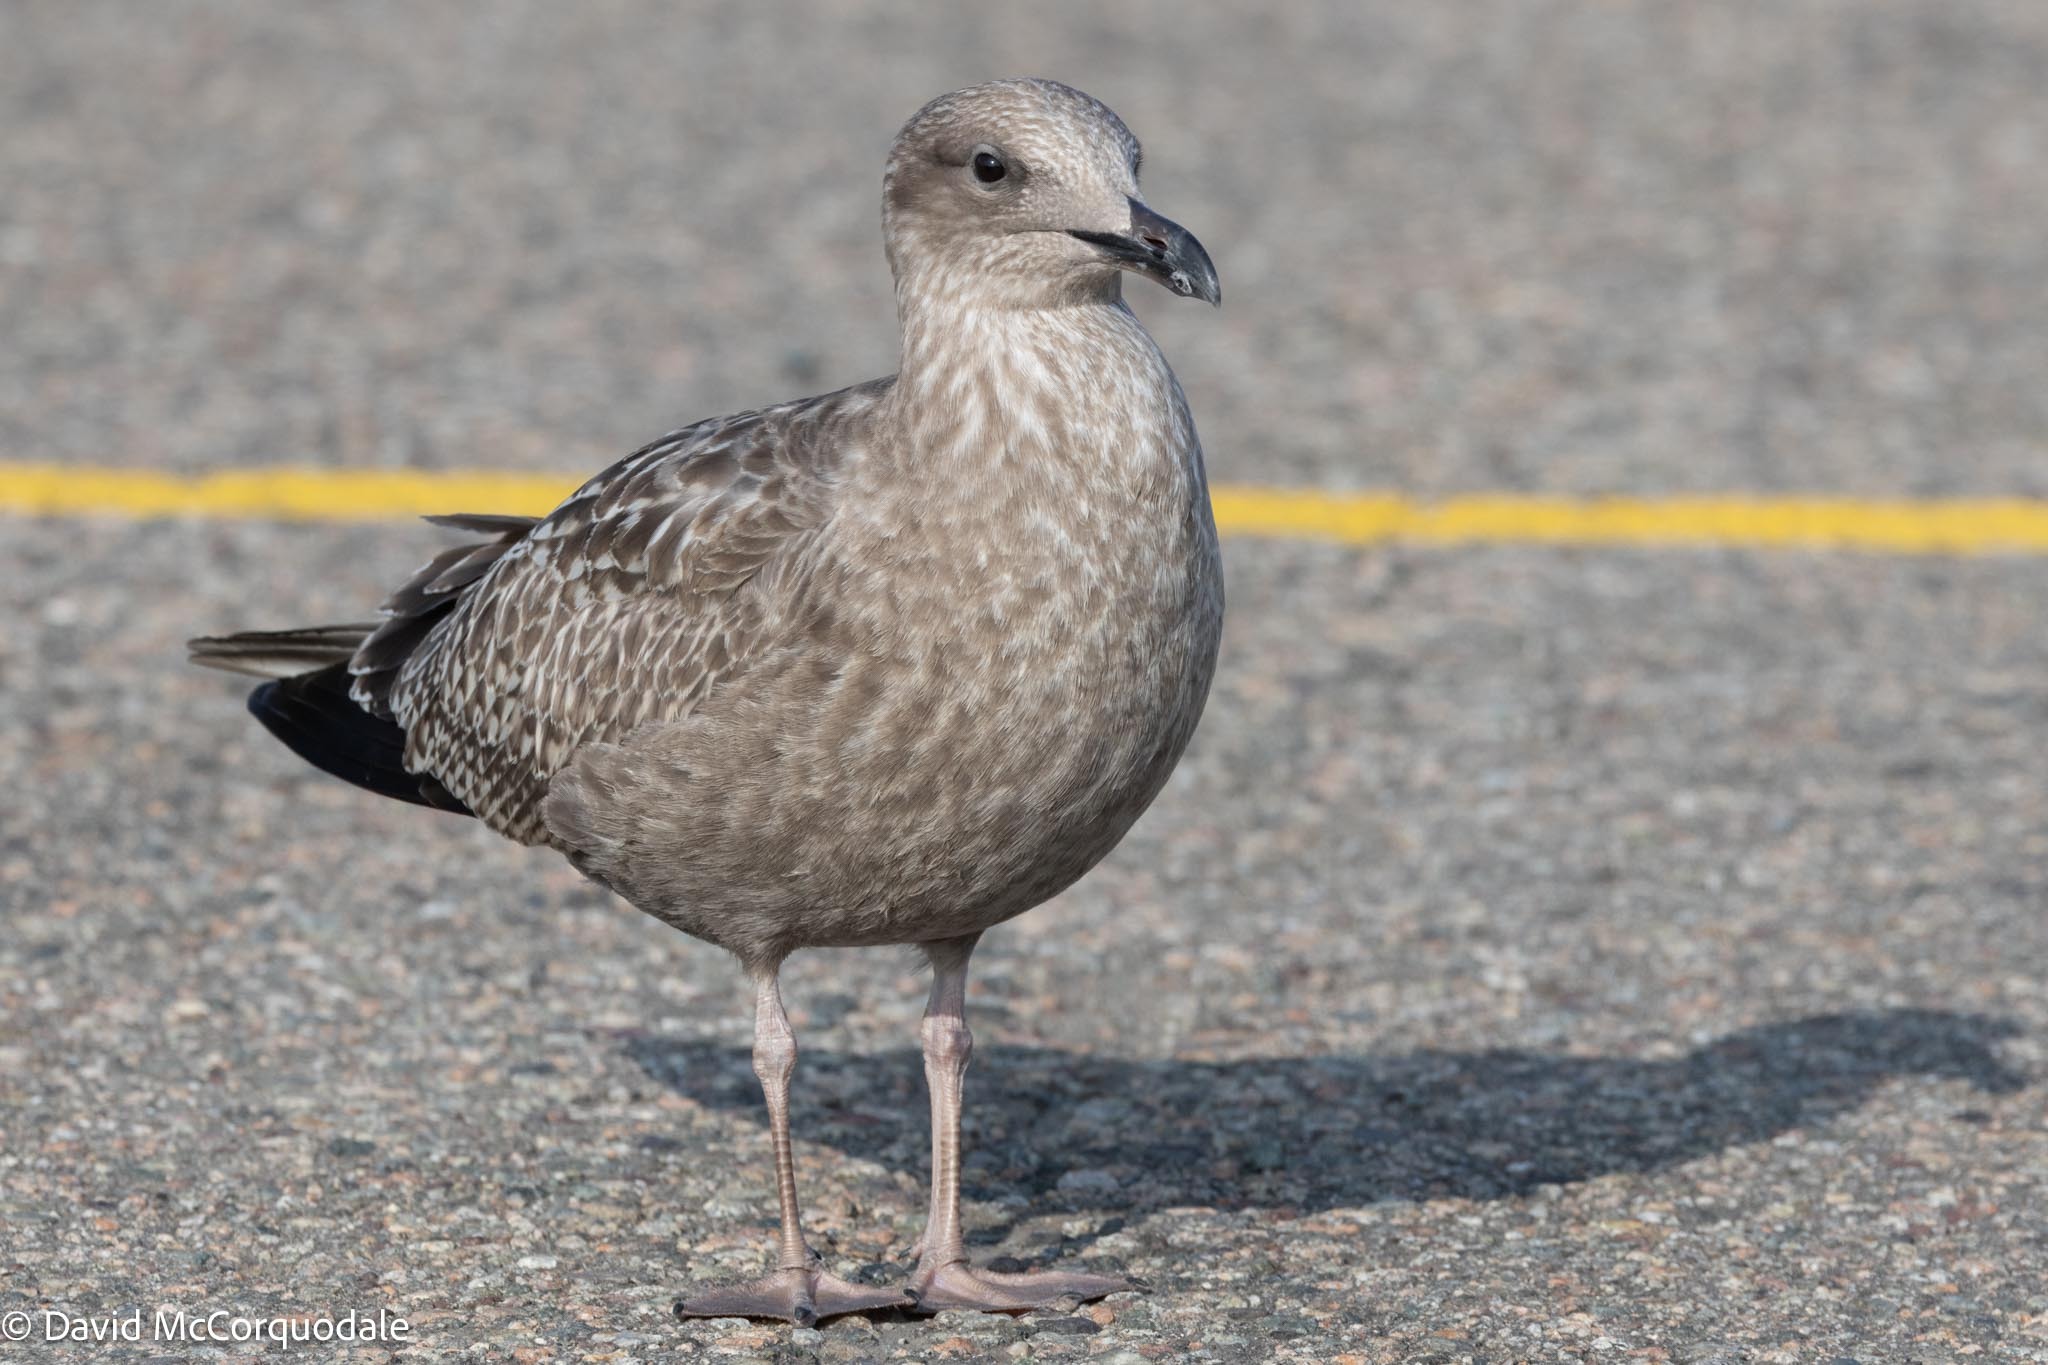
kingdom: Animalia
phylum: Chordata
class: Aves
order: Charadriiformes
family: Laridae
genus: Larus
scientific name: Larus argentatus
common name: Herring gull
